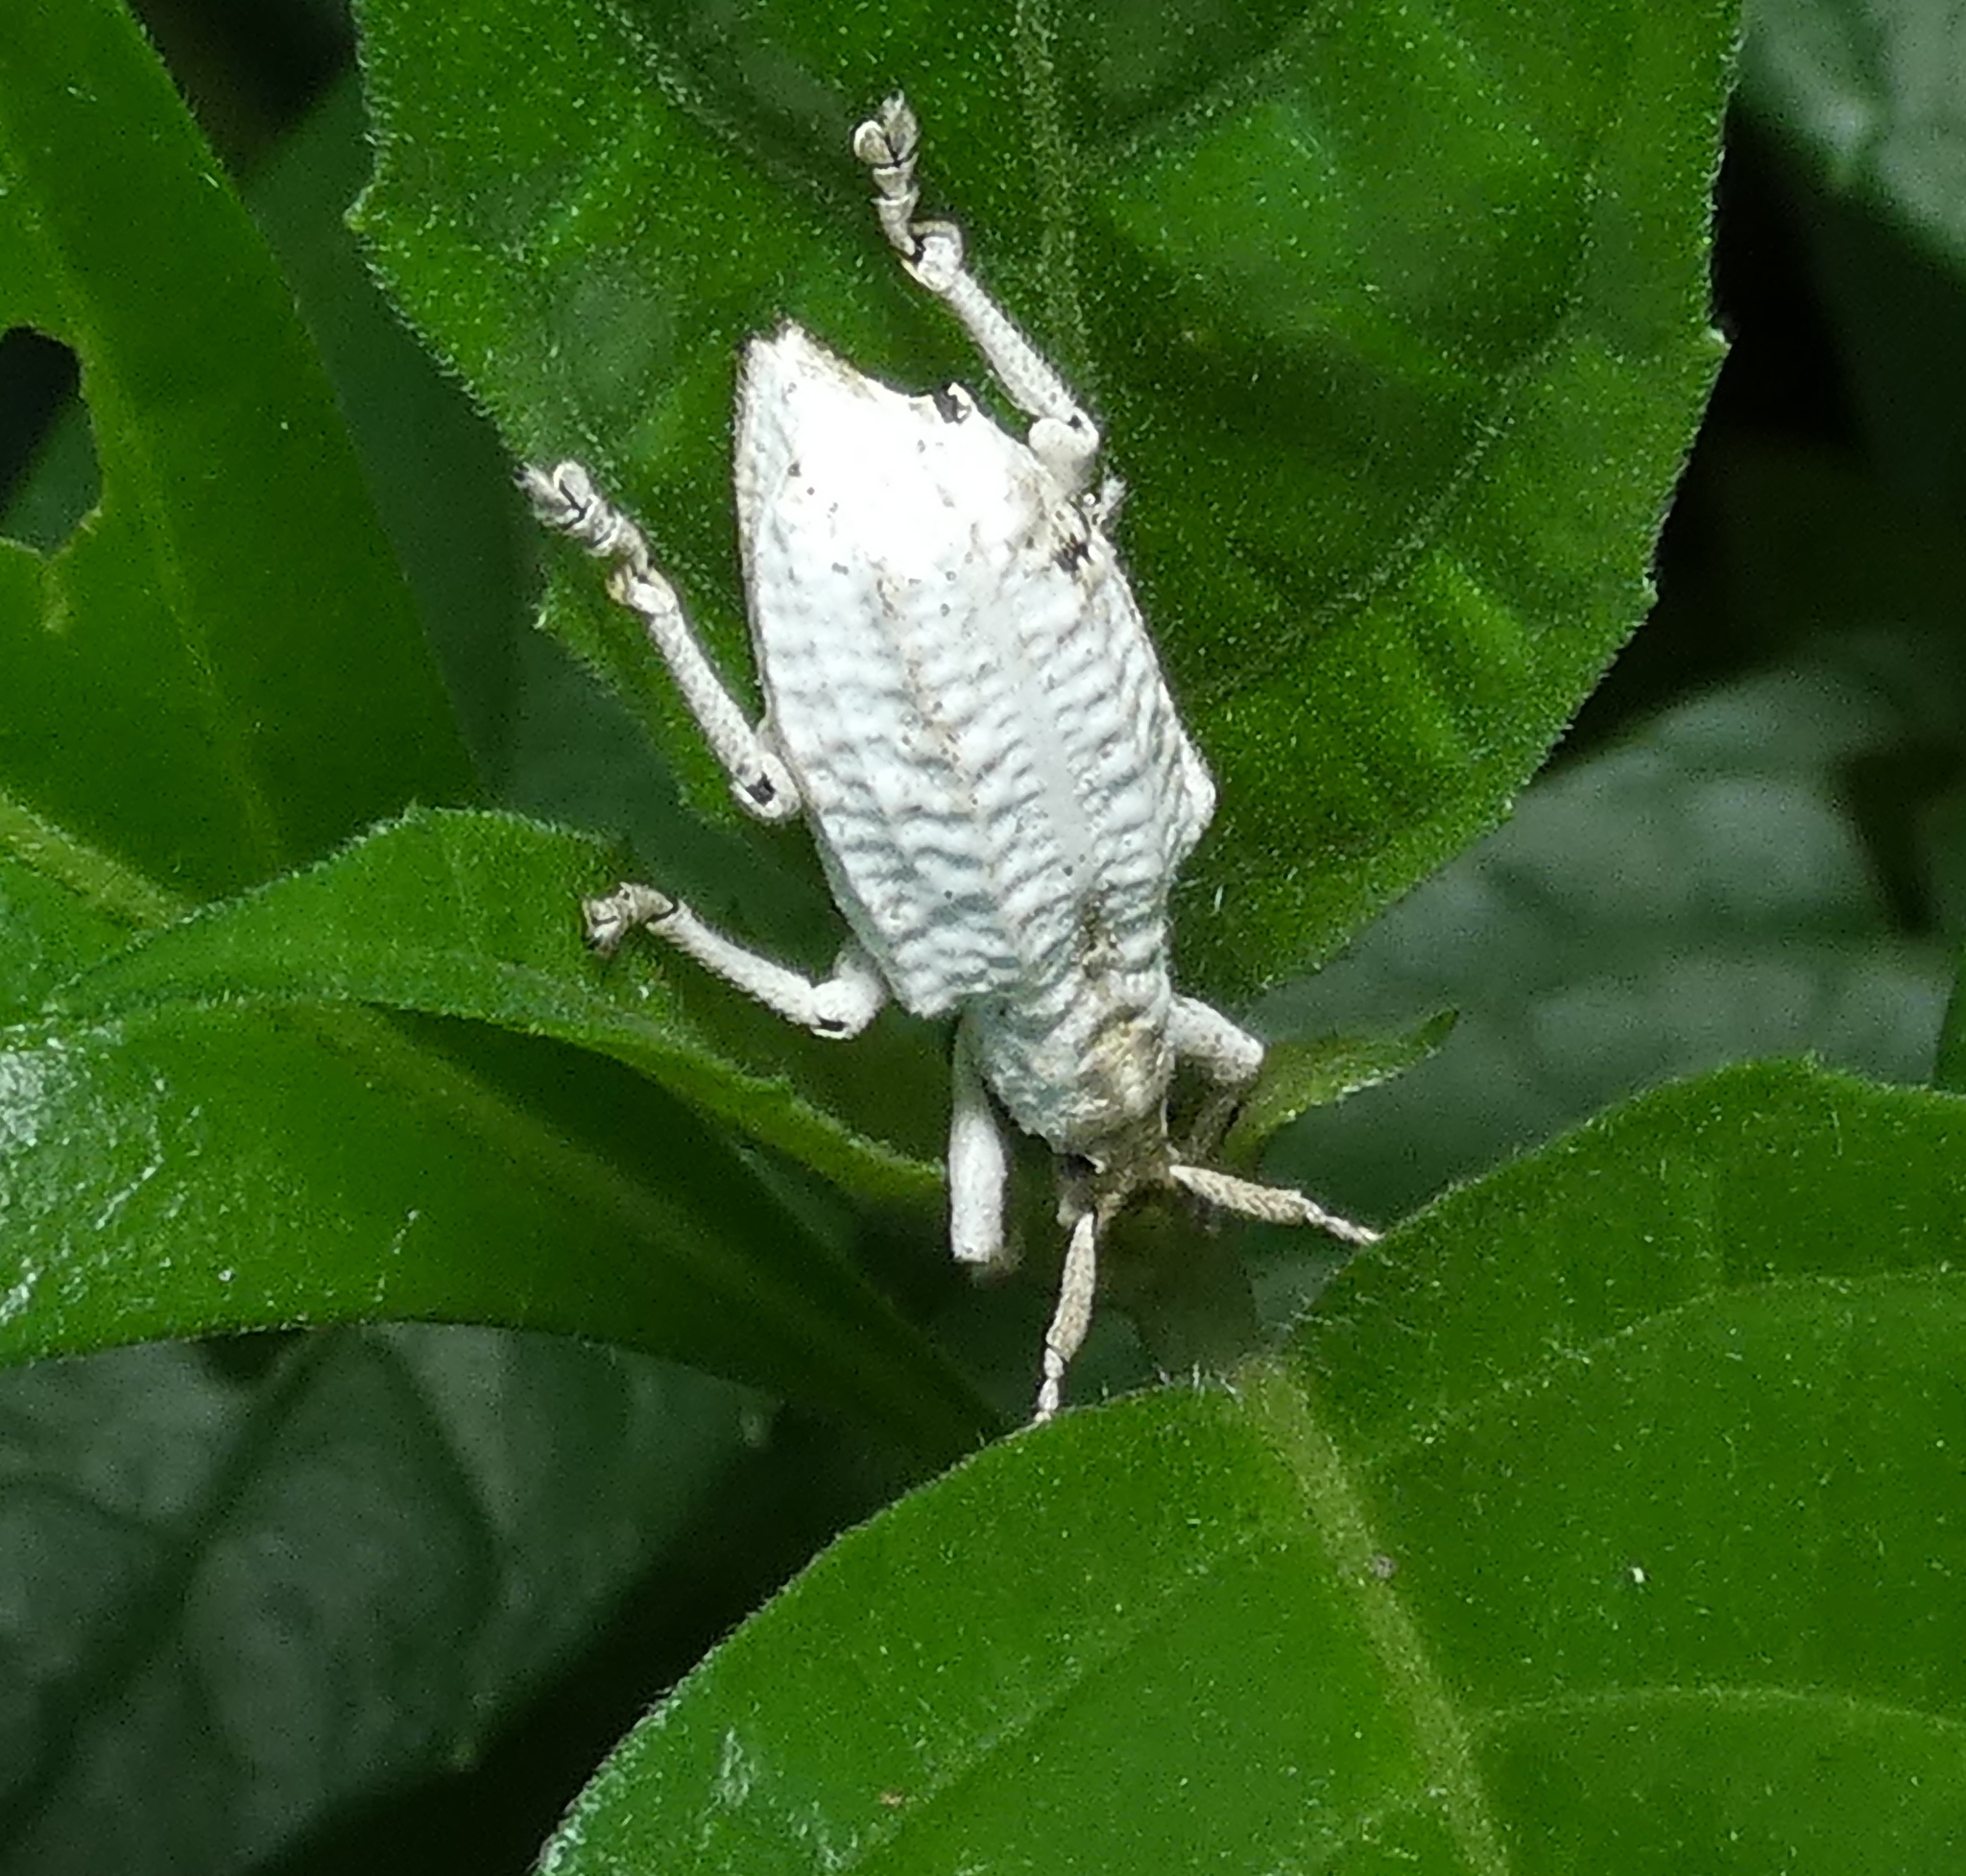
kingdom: Animalia
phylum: Arthropoda
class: Insecta
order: Coleoptera
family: Curculionidae
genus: Compsus
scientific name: Compsus niveus
